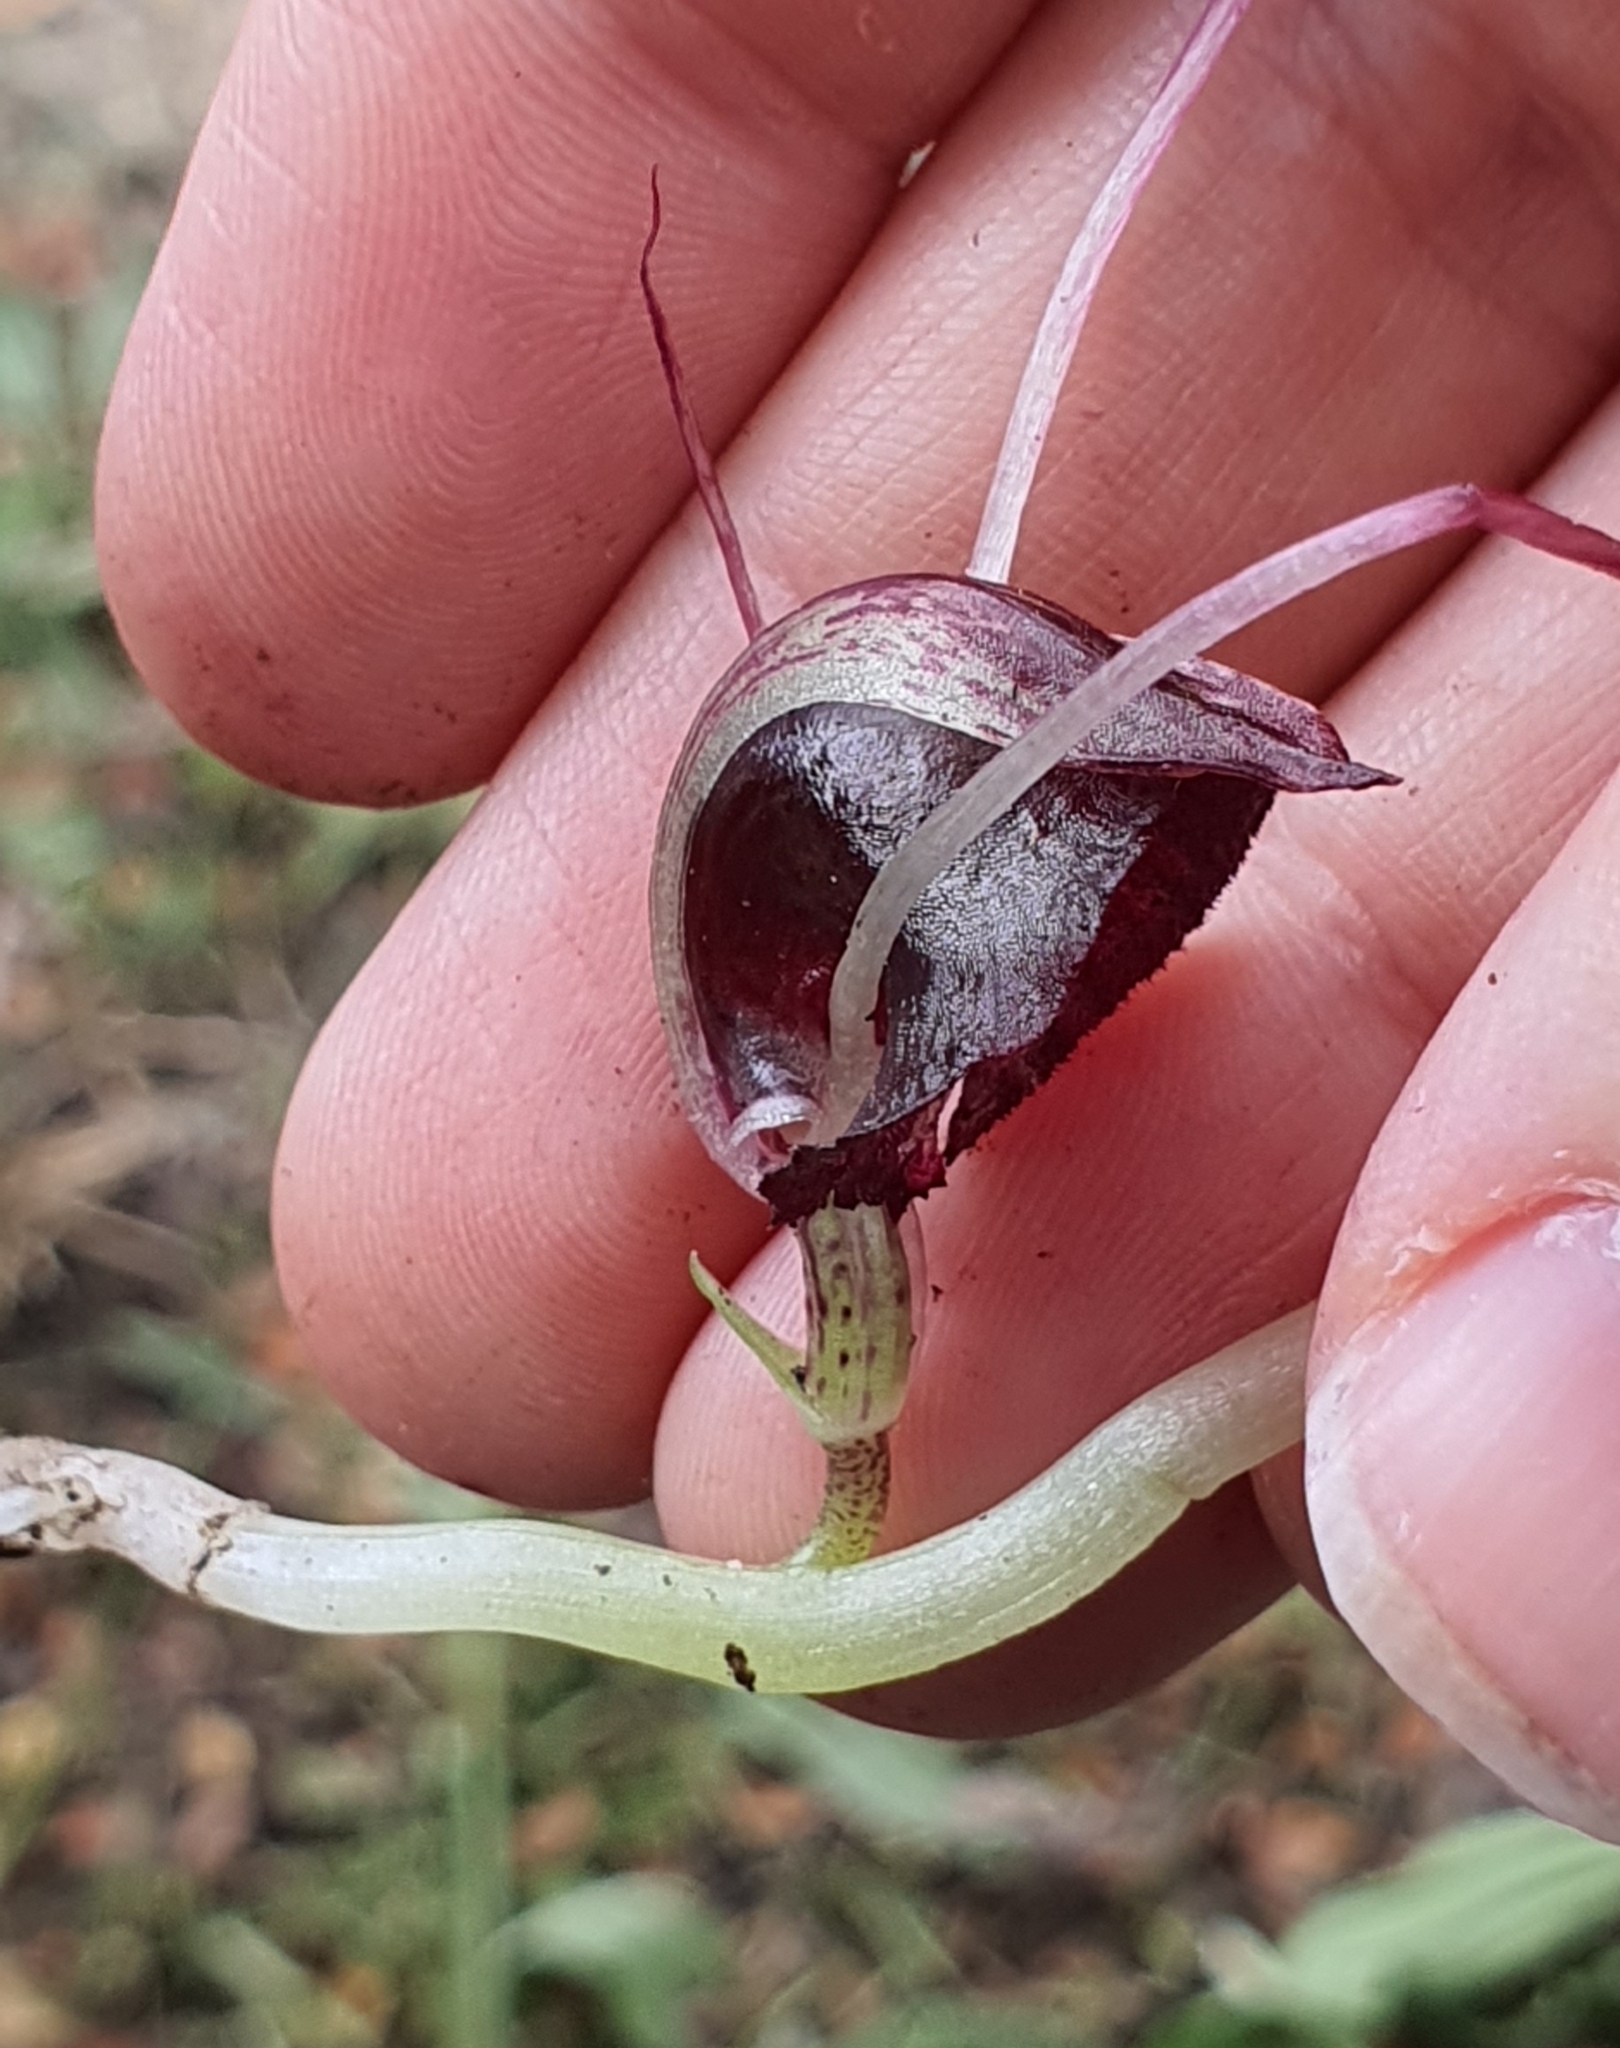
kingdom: Plantae
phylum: Tracheophyta
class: Liliopsida
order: Asparagales
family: Orchidaceae
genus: Corybas
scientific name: Corybas macranthus
